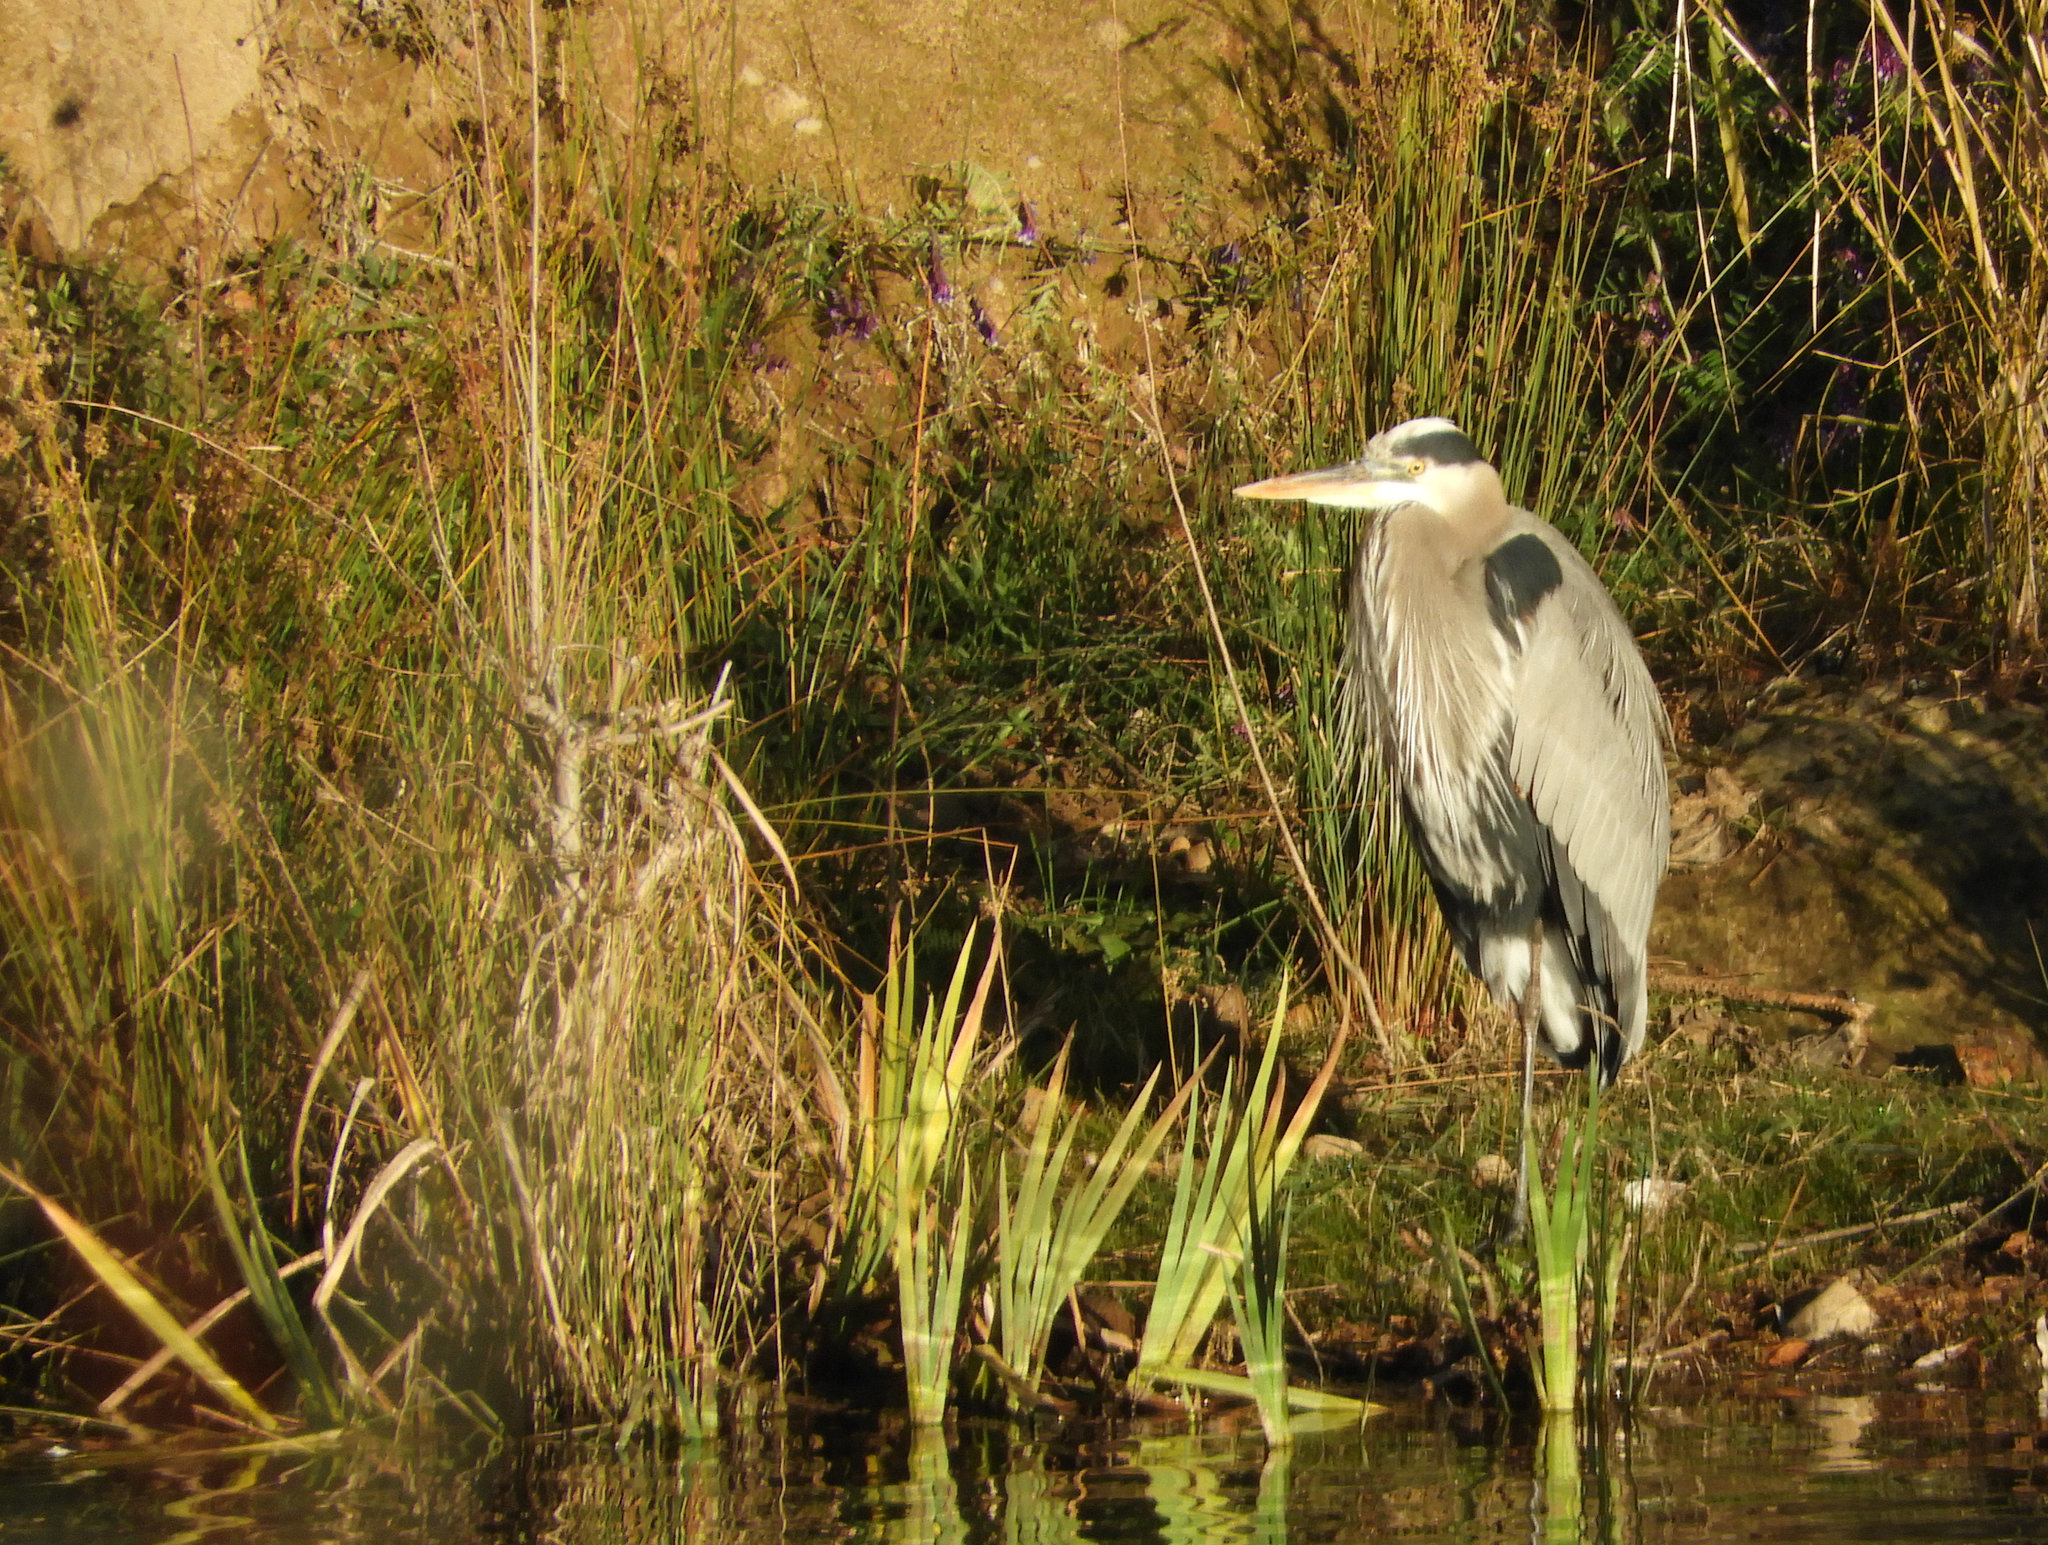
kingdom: Animalia
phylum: Chordata
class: Aves
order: Pelecaniformes
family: Ardeidae
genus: Ardea
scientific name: Ardea herodias
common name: Great blue heron
